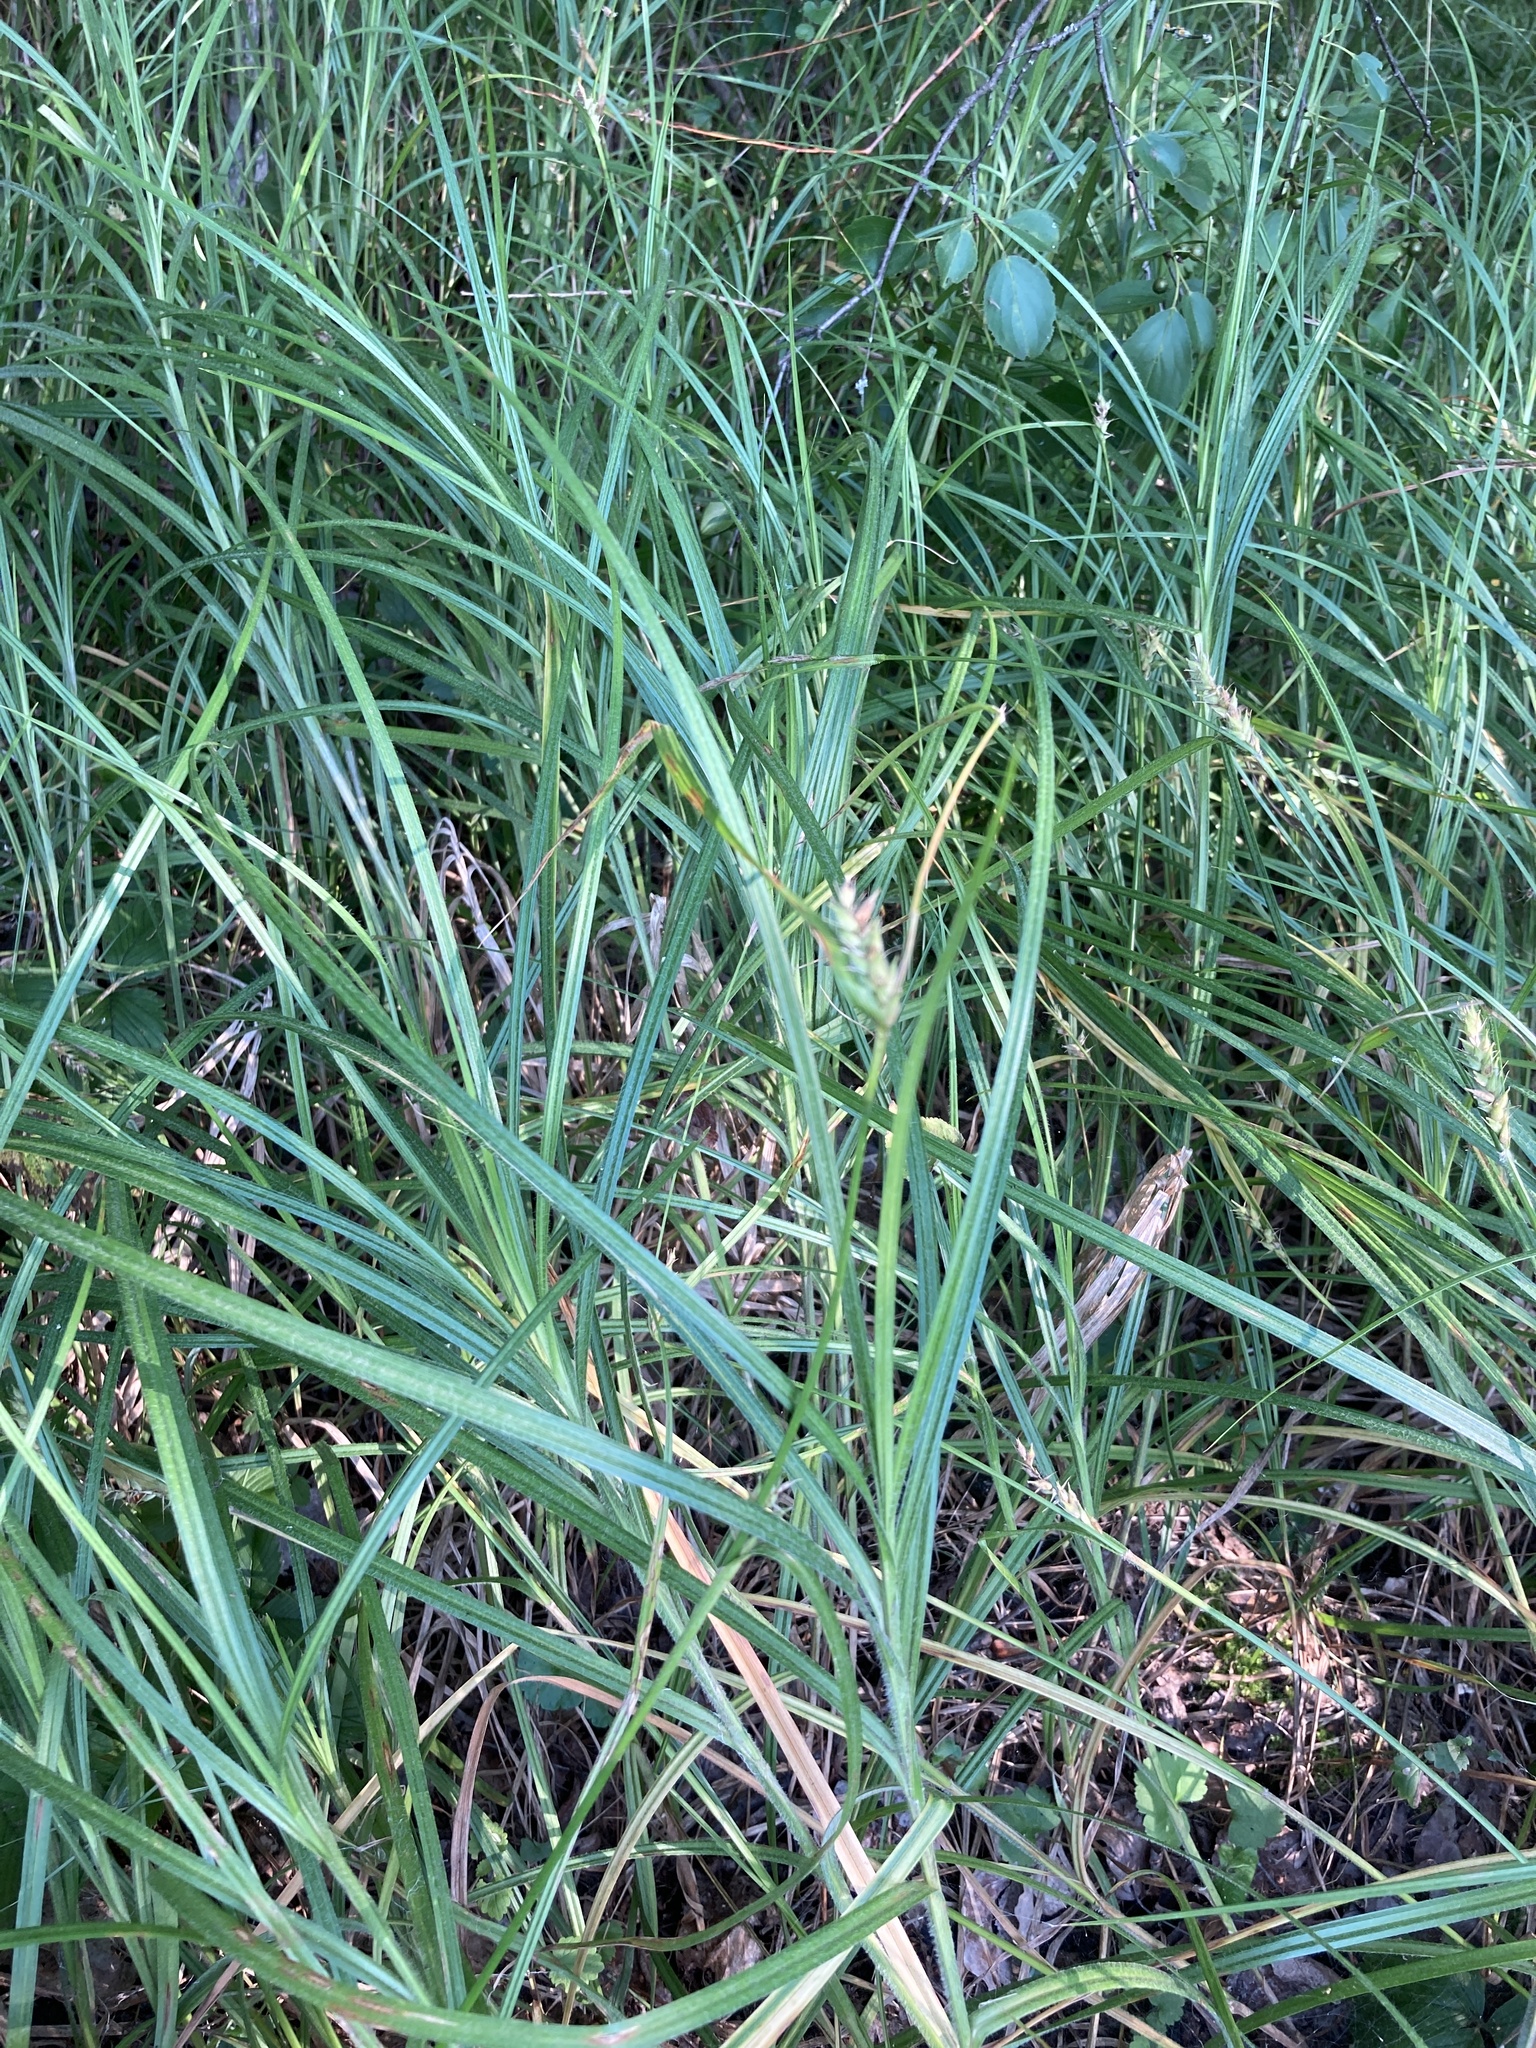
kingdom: Plantae
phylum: Tracheophyta
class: Liliopsida
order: Poales
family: Cyperaceae
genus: Carex
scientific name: Carex hirta
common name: Hairy sedge
